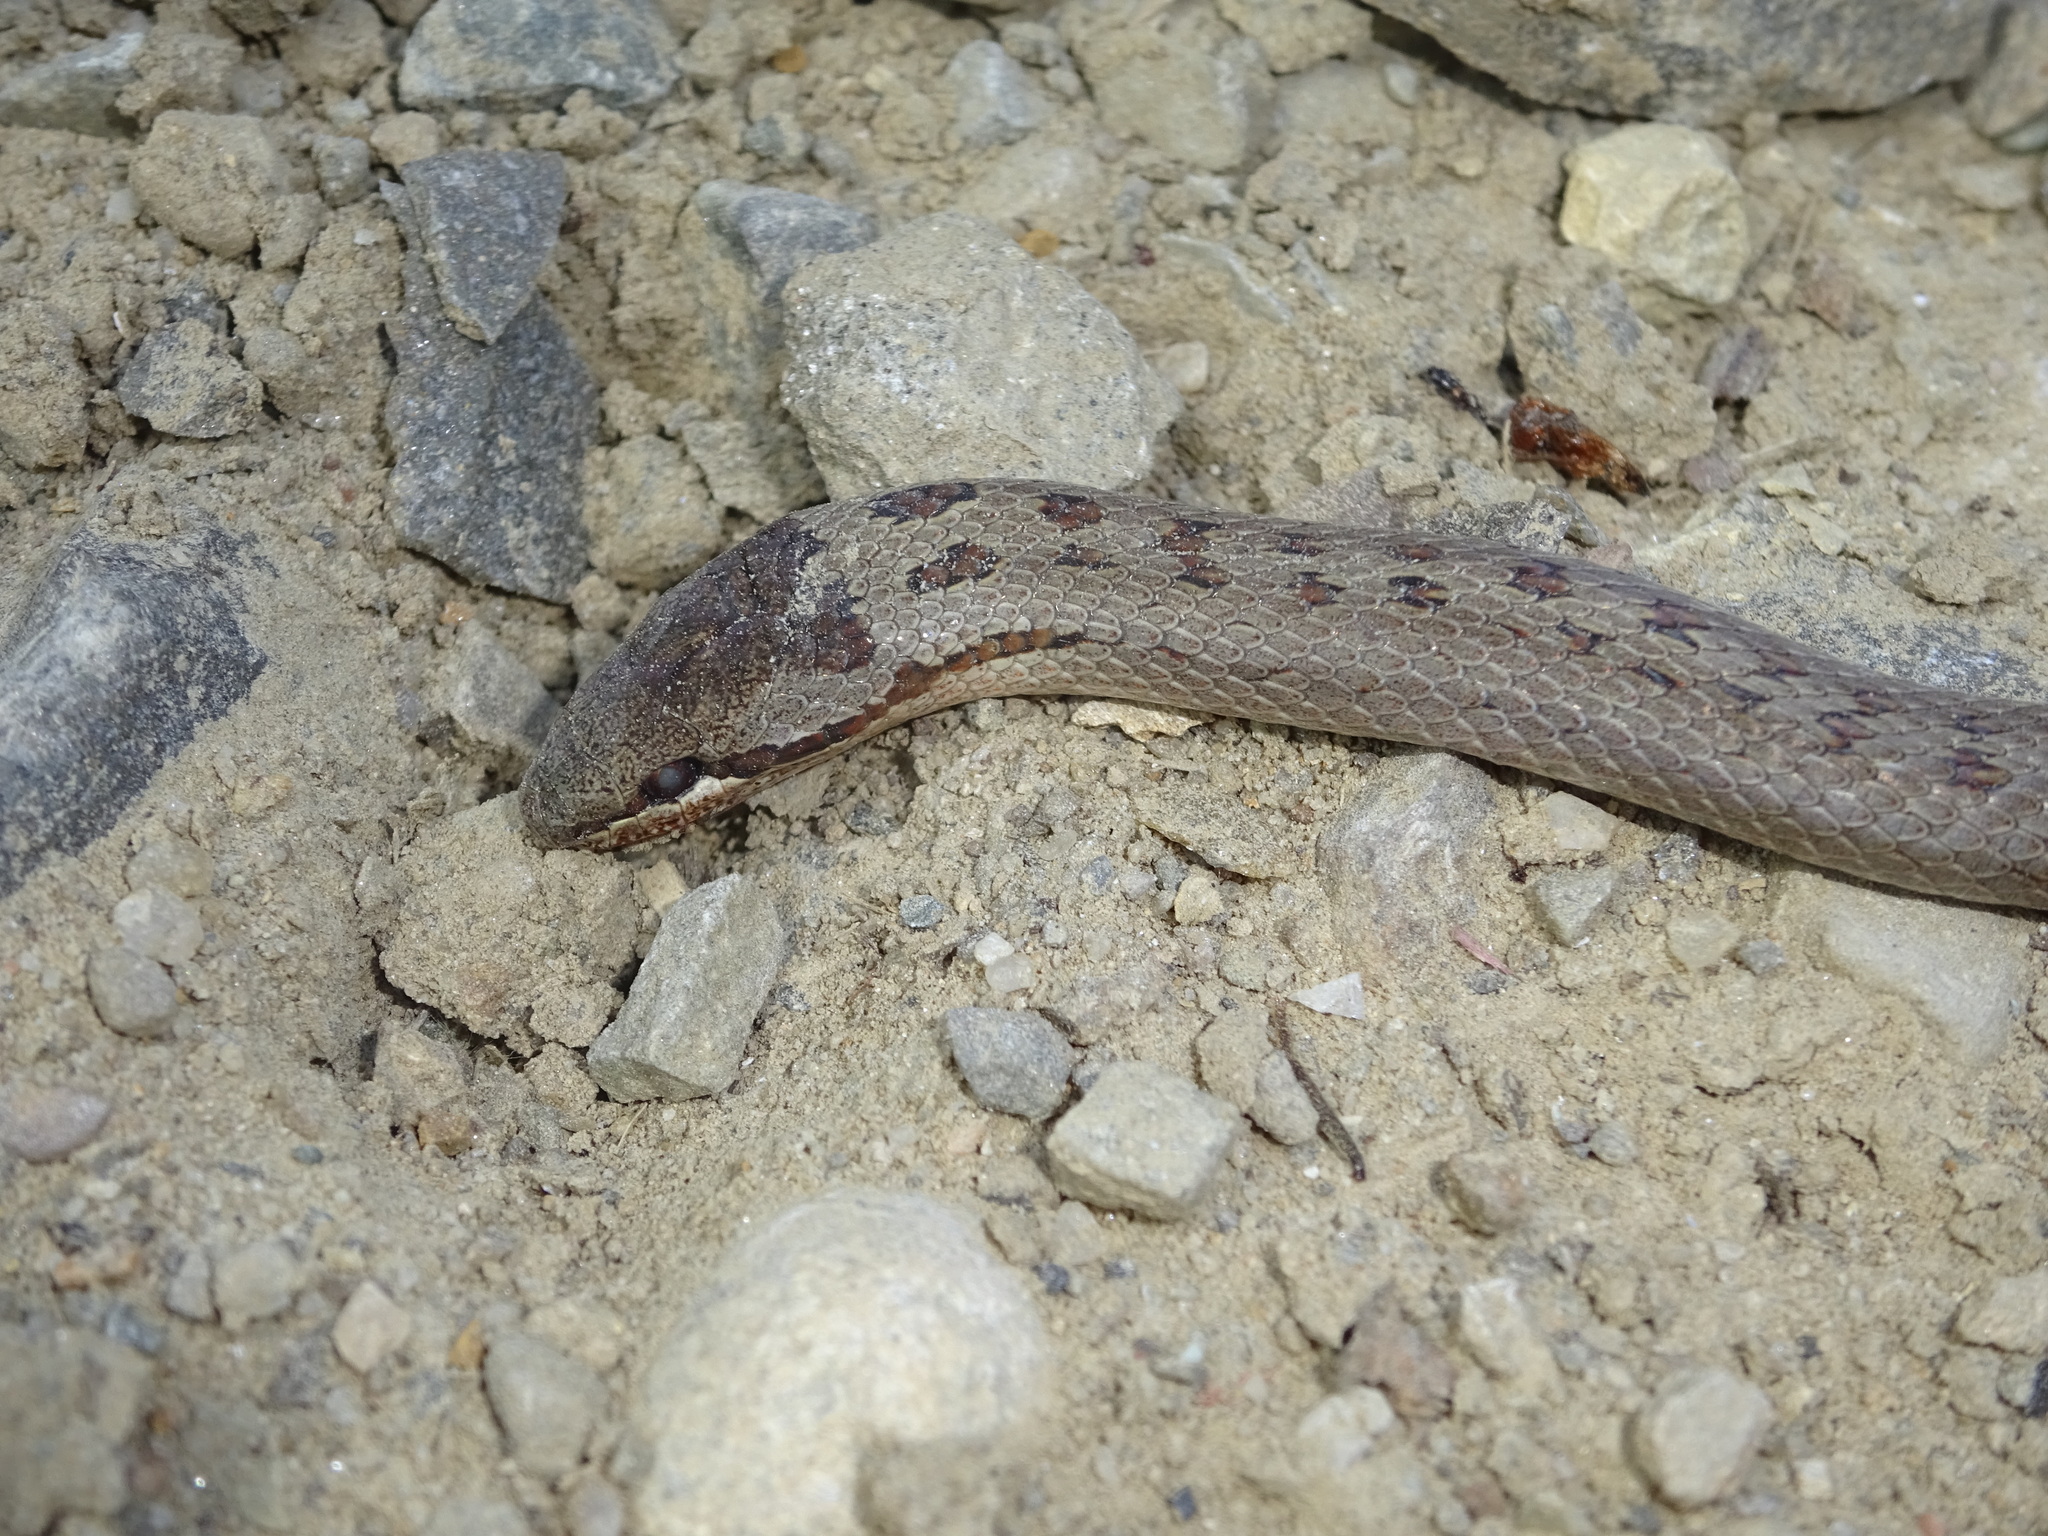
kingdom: Animalia
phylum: Chordata
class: Squamata
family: Colubridae
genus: Coronella
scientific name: Coronella austriaca
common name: Smooth snake
